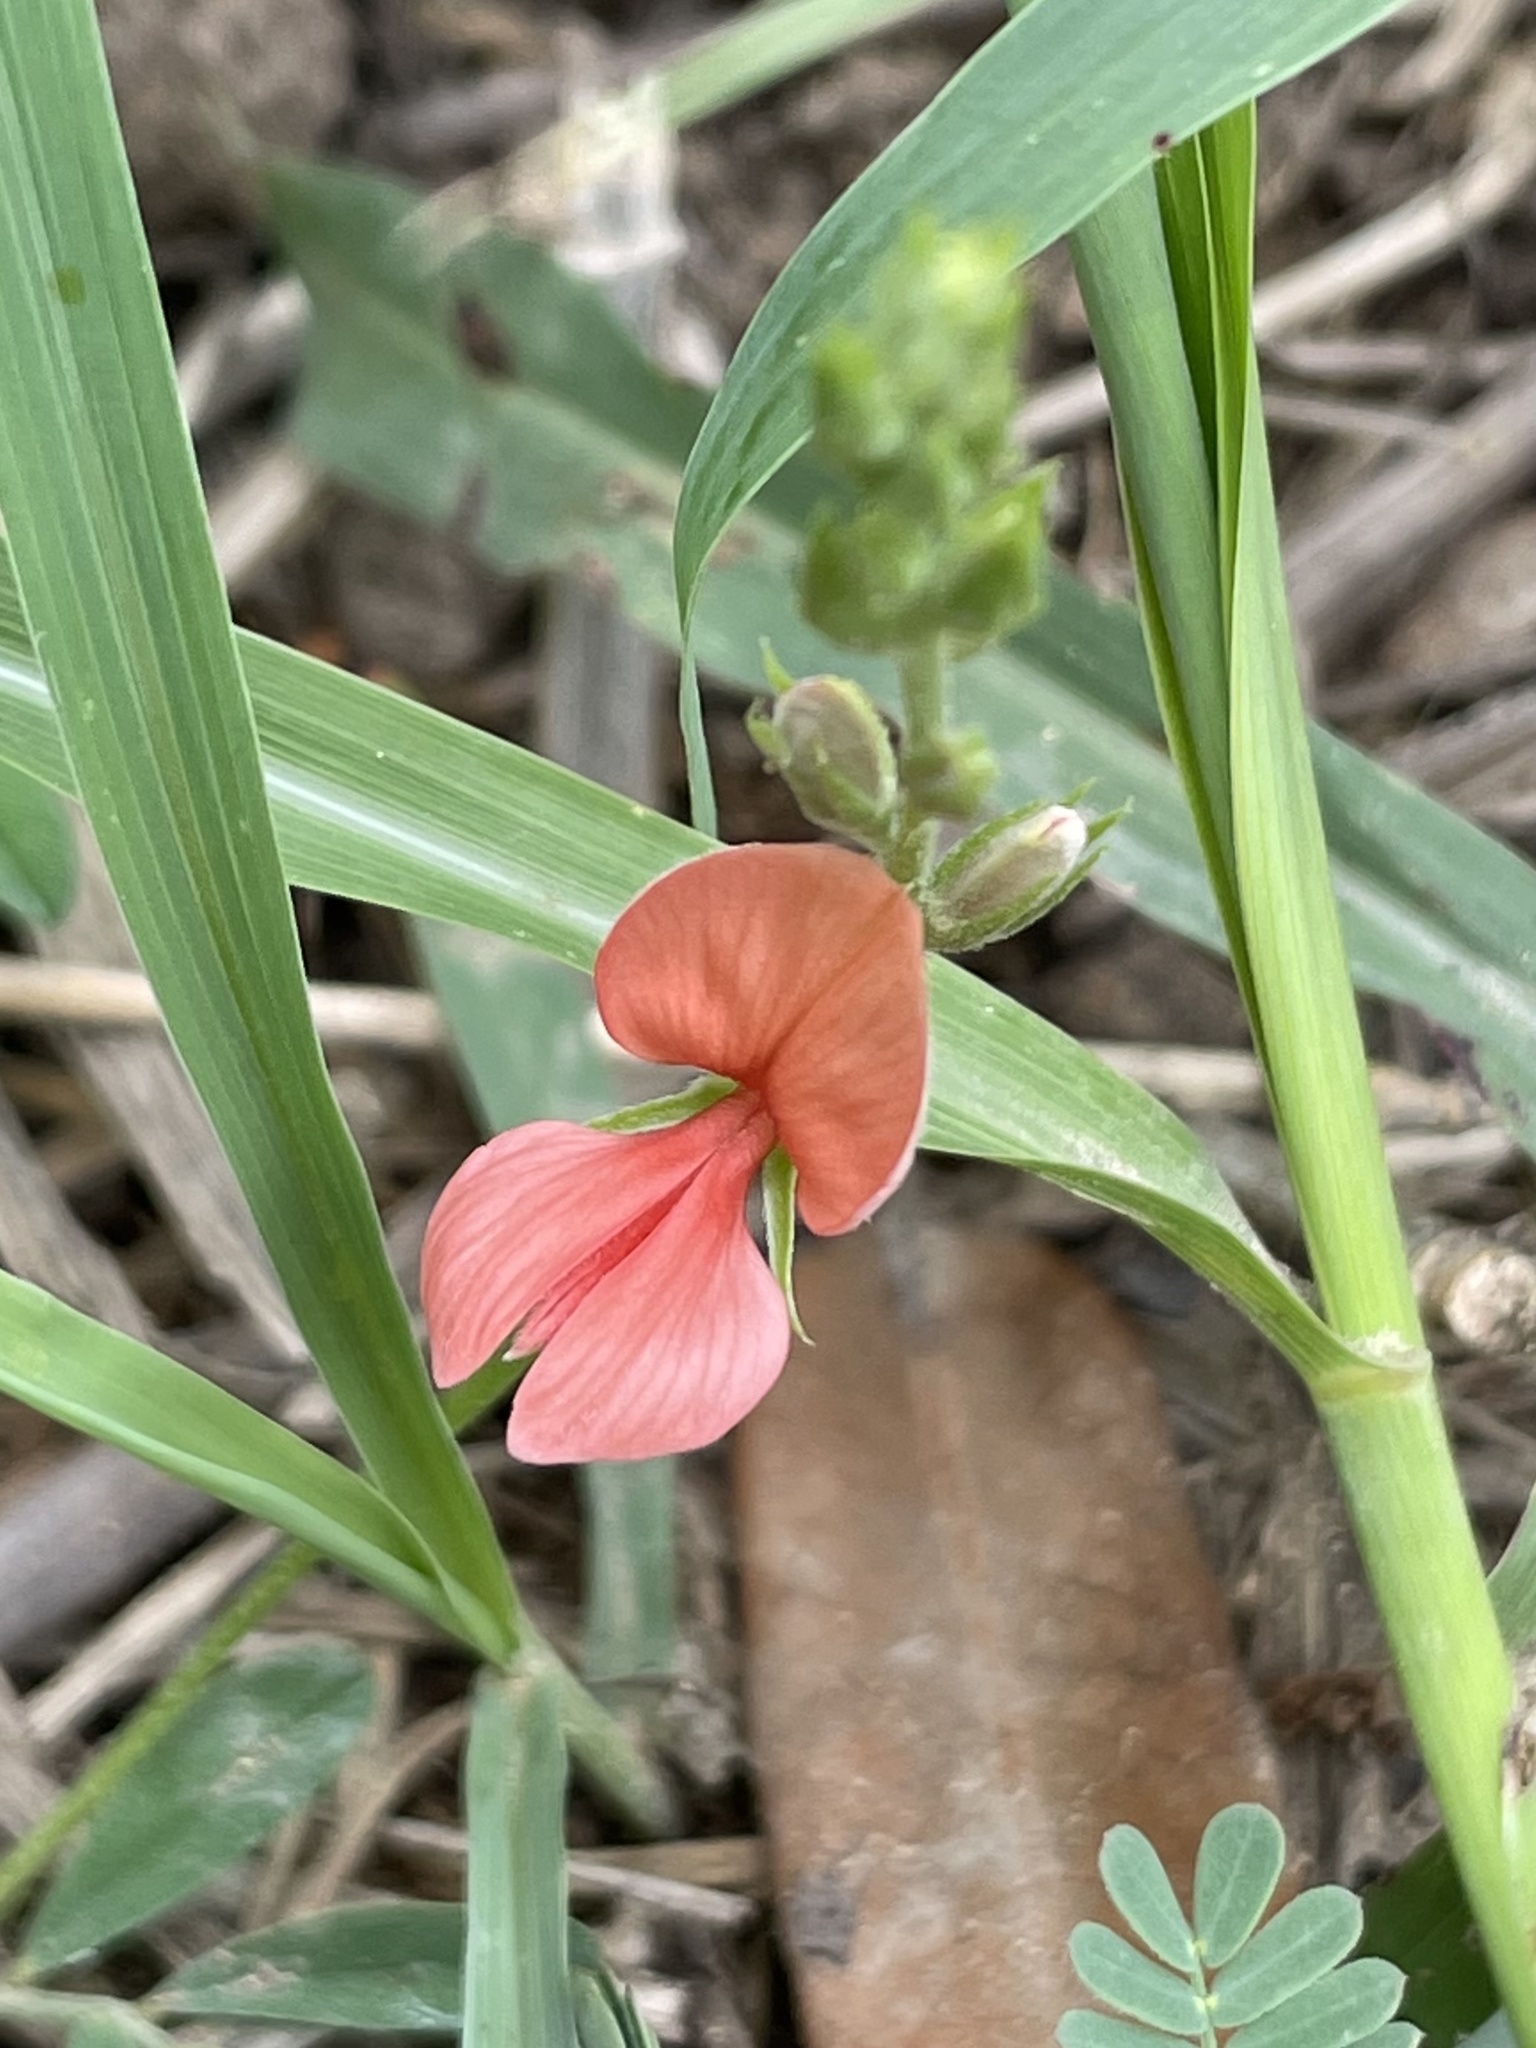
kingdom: Plantae
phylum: Tracheophyta
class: Magnoliopsida
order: Fabales
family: Fabaceae
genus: Indigofera
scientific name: Indigofera miniata
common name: Coast indigo
